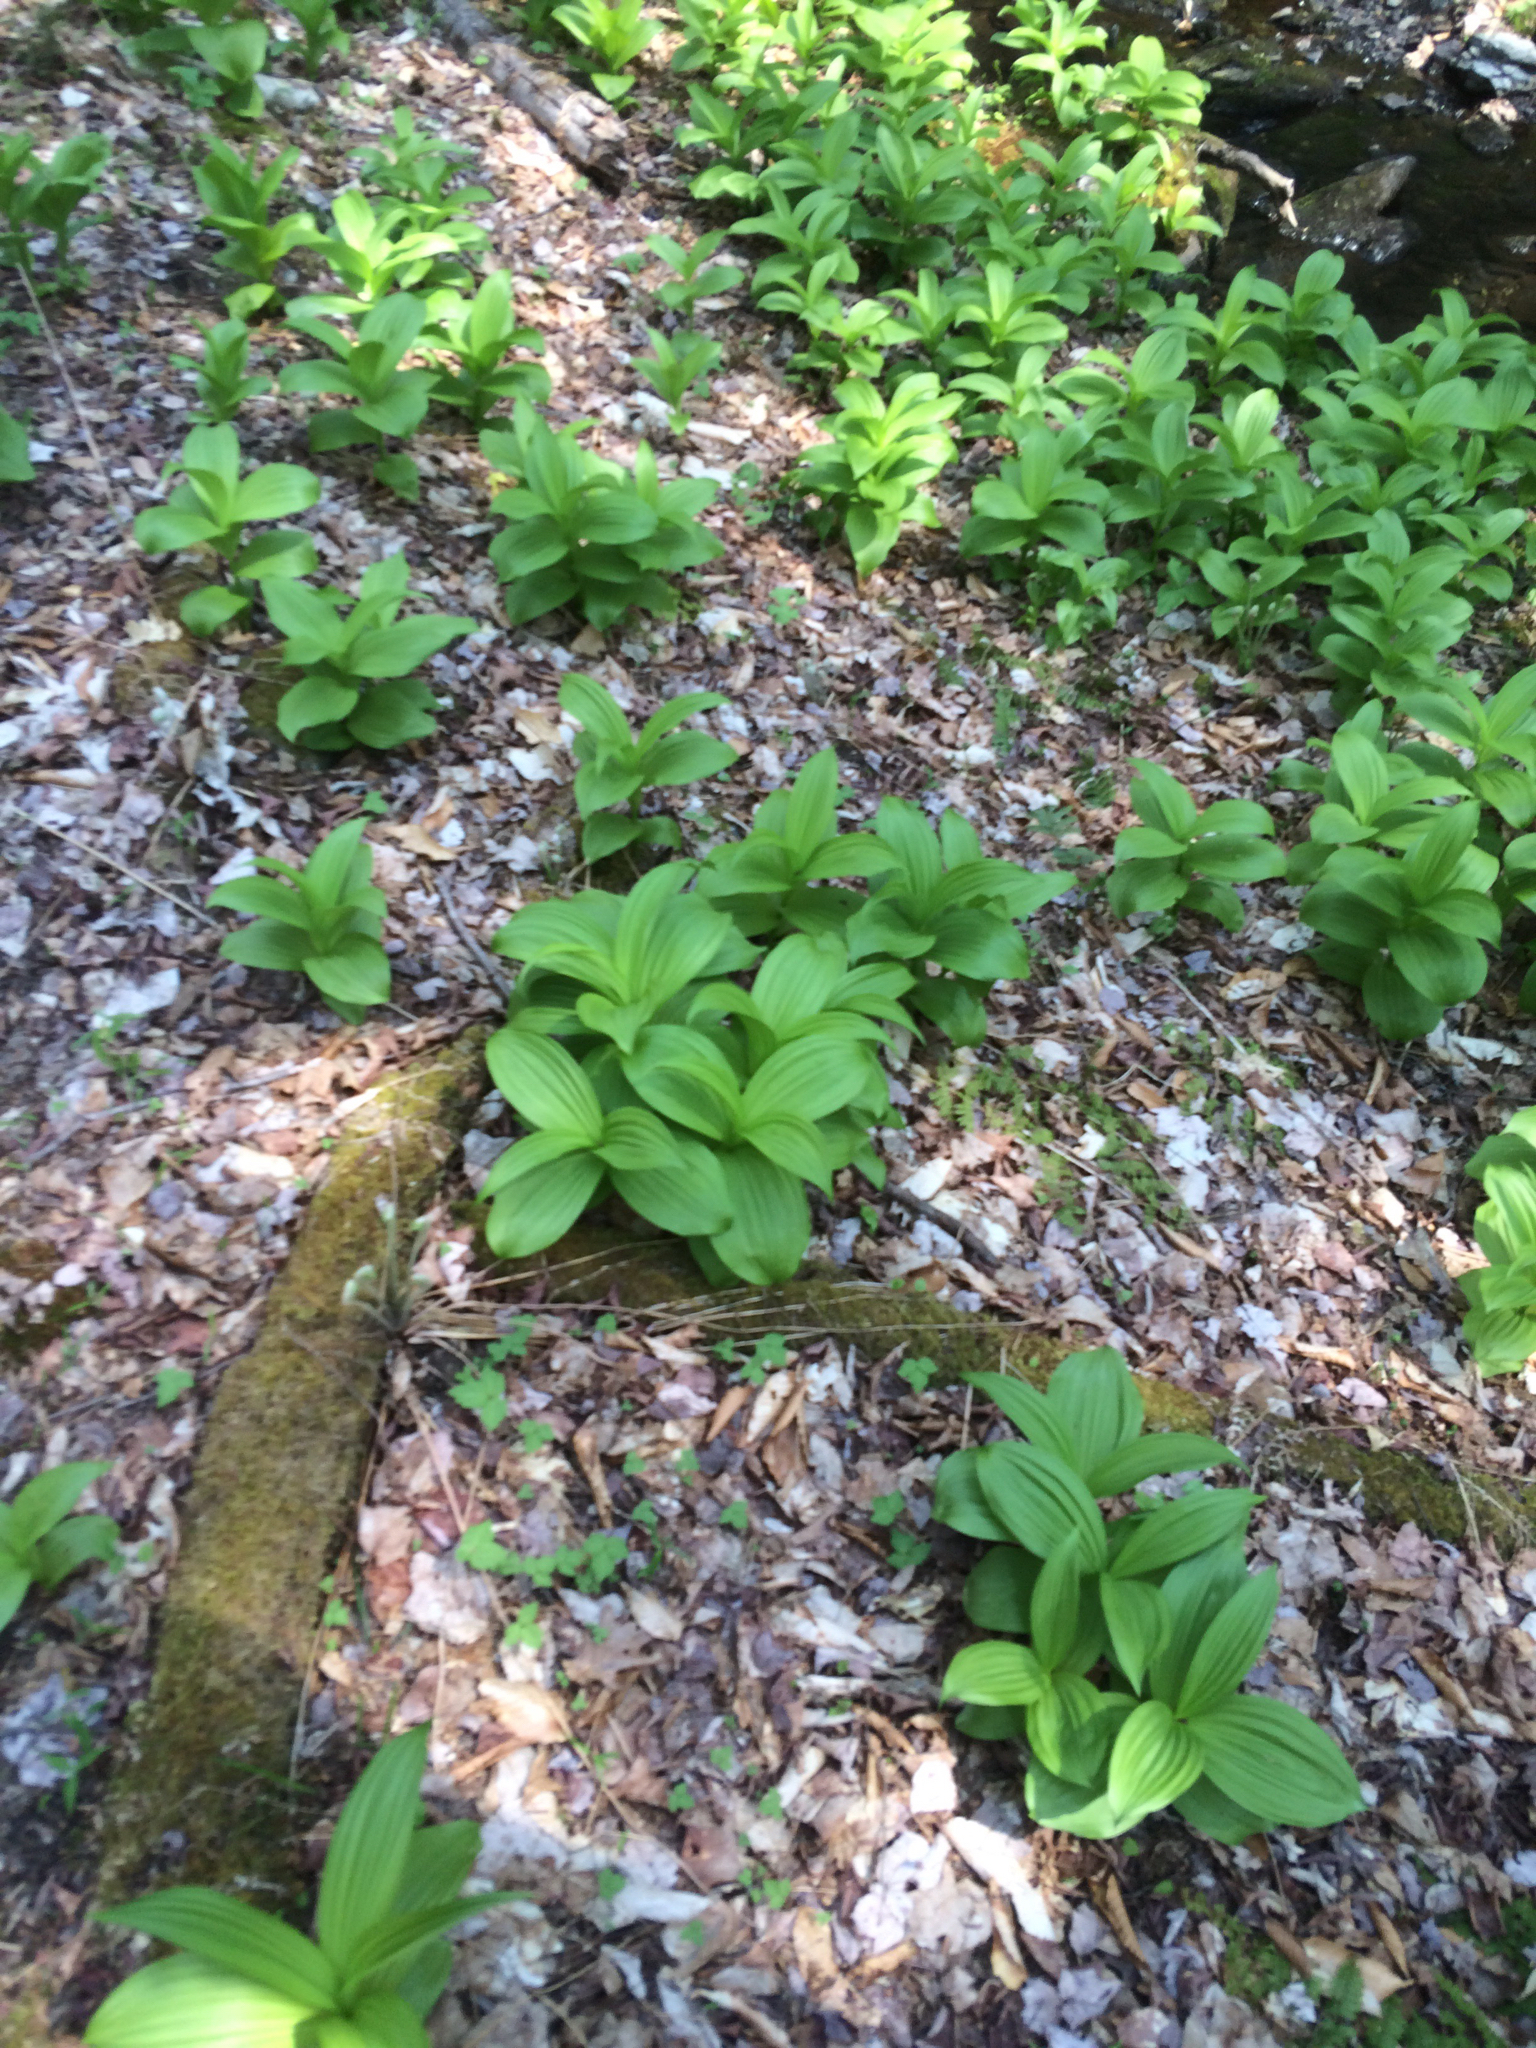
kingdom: Plantae
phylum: Tracheophyta
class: Liliopsida
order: Liliales
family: Melanthiaceae
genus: Veratrum
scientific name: Veratrum viride
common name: American false hellebore
